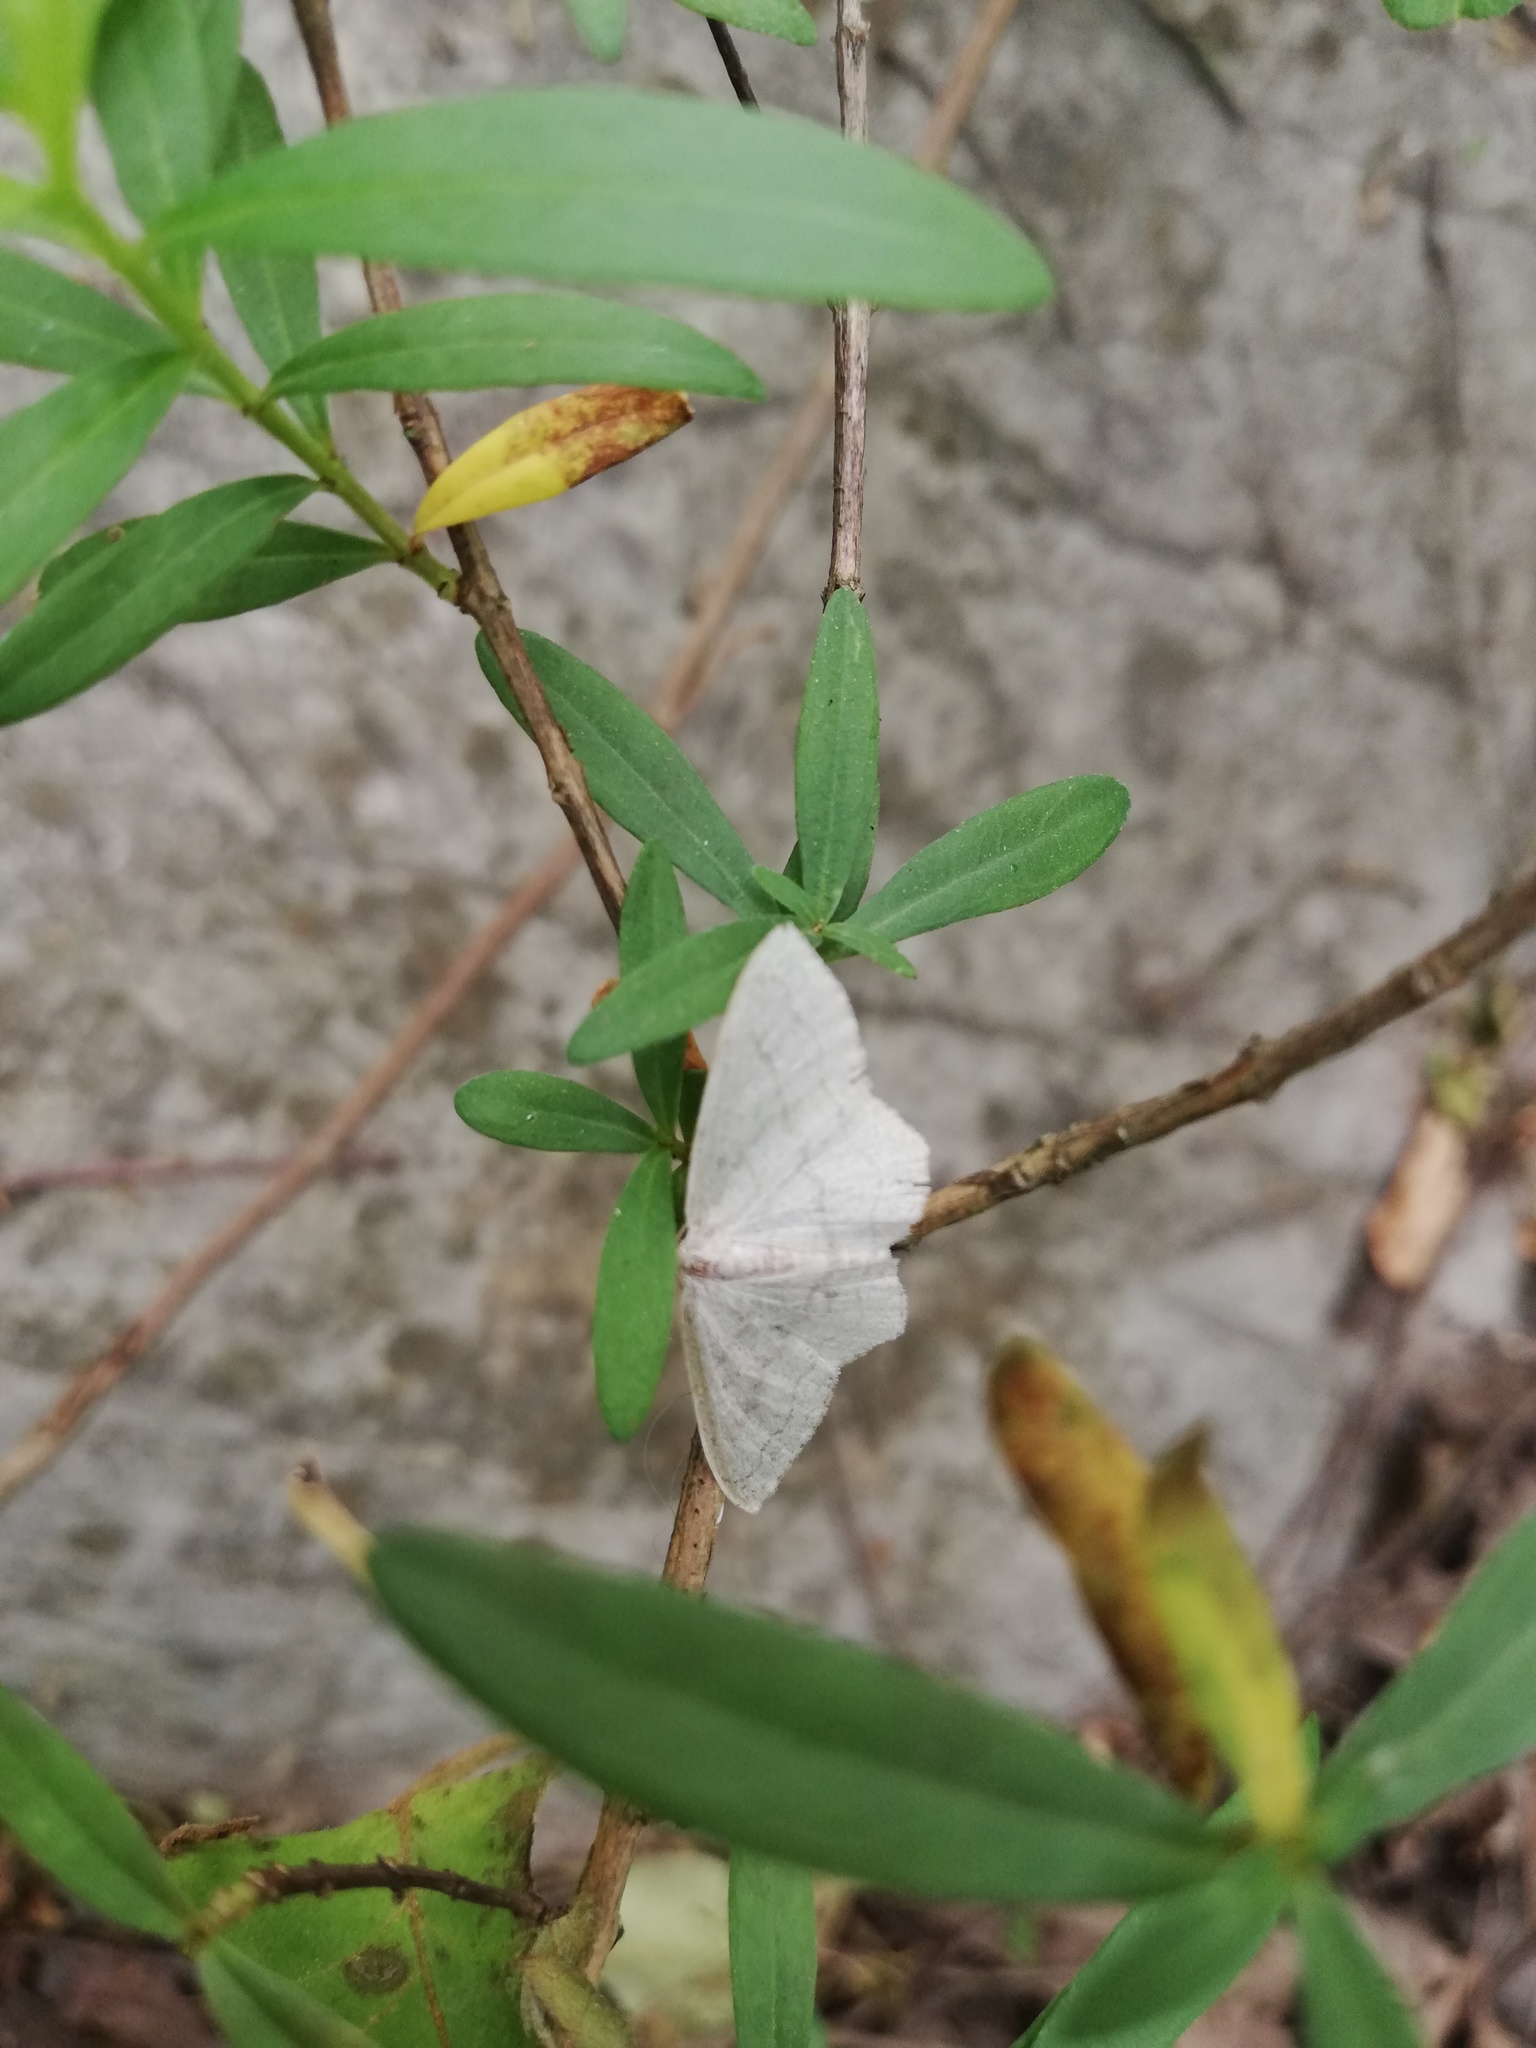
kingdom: Animalia
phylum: Arthropoda
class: Insecta
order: Lepidoptera
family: Geometridae
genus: Scopula
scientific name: Scopula junctaria
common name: Simple wave
